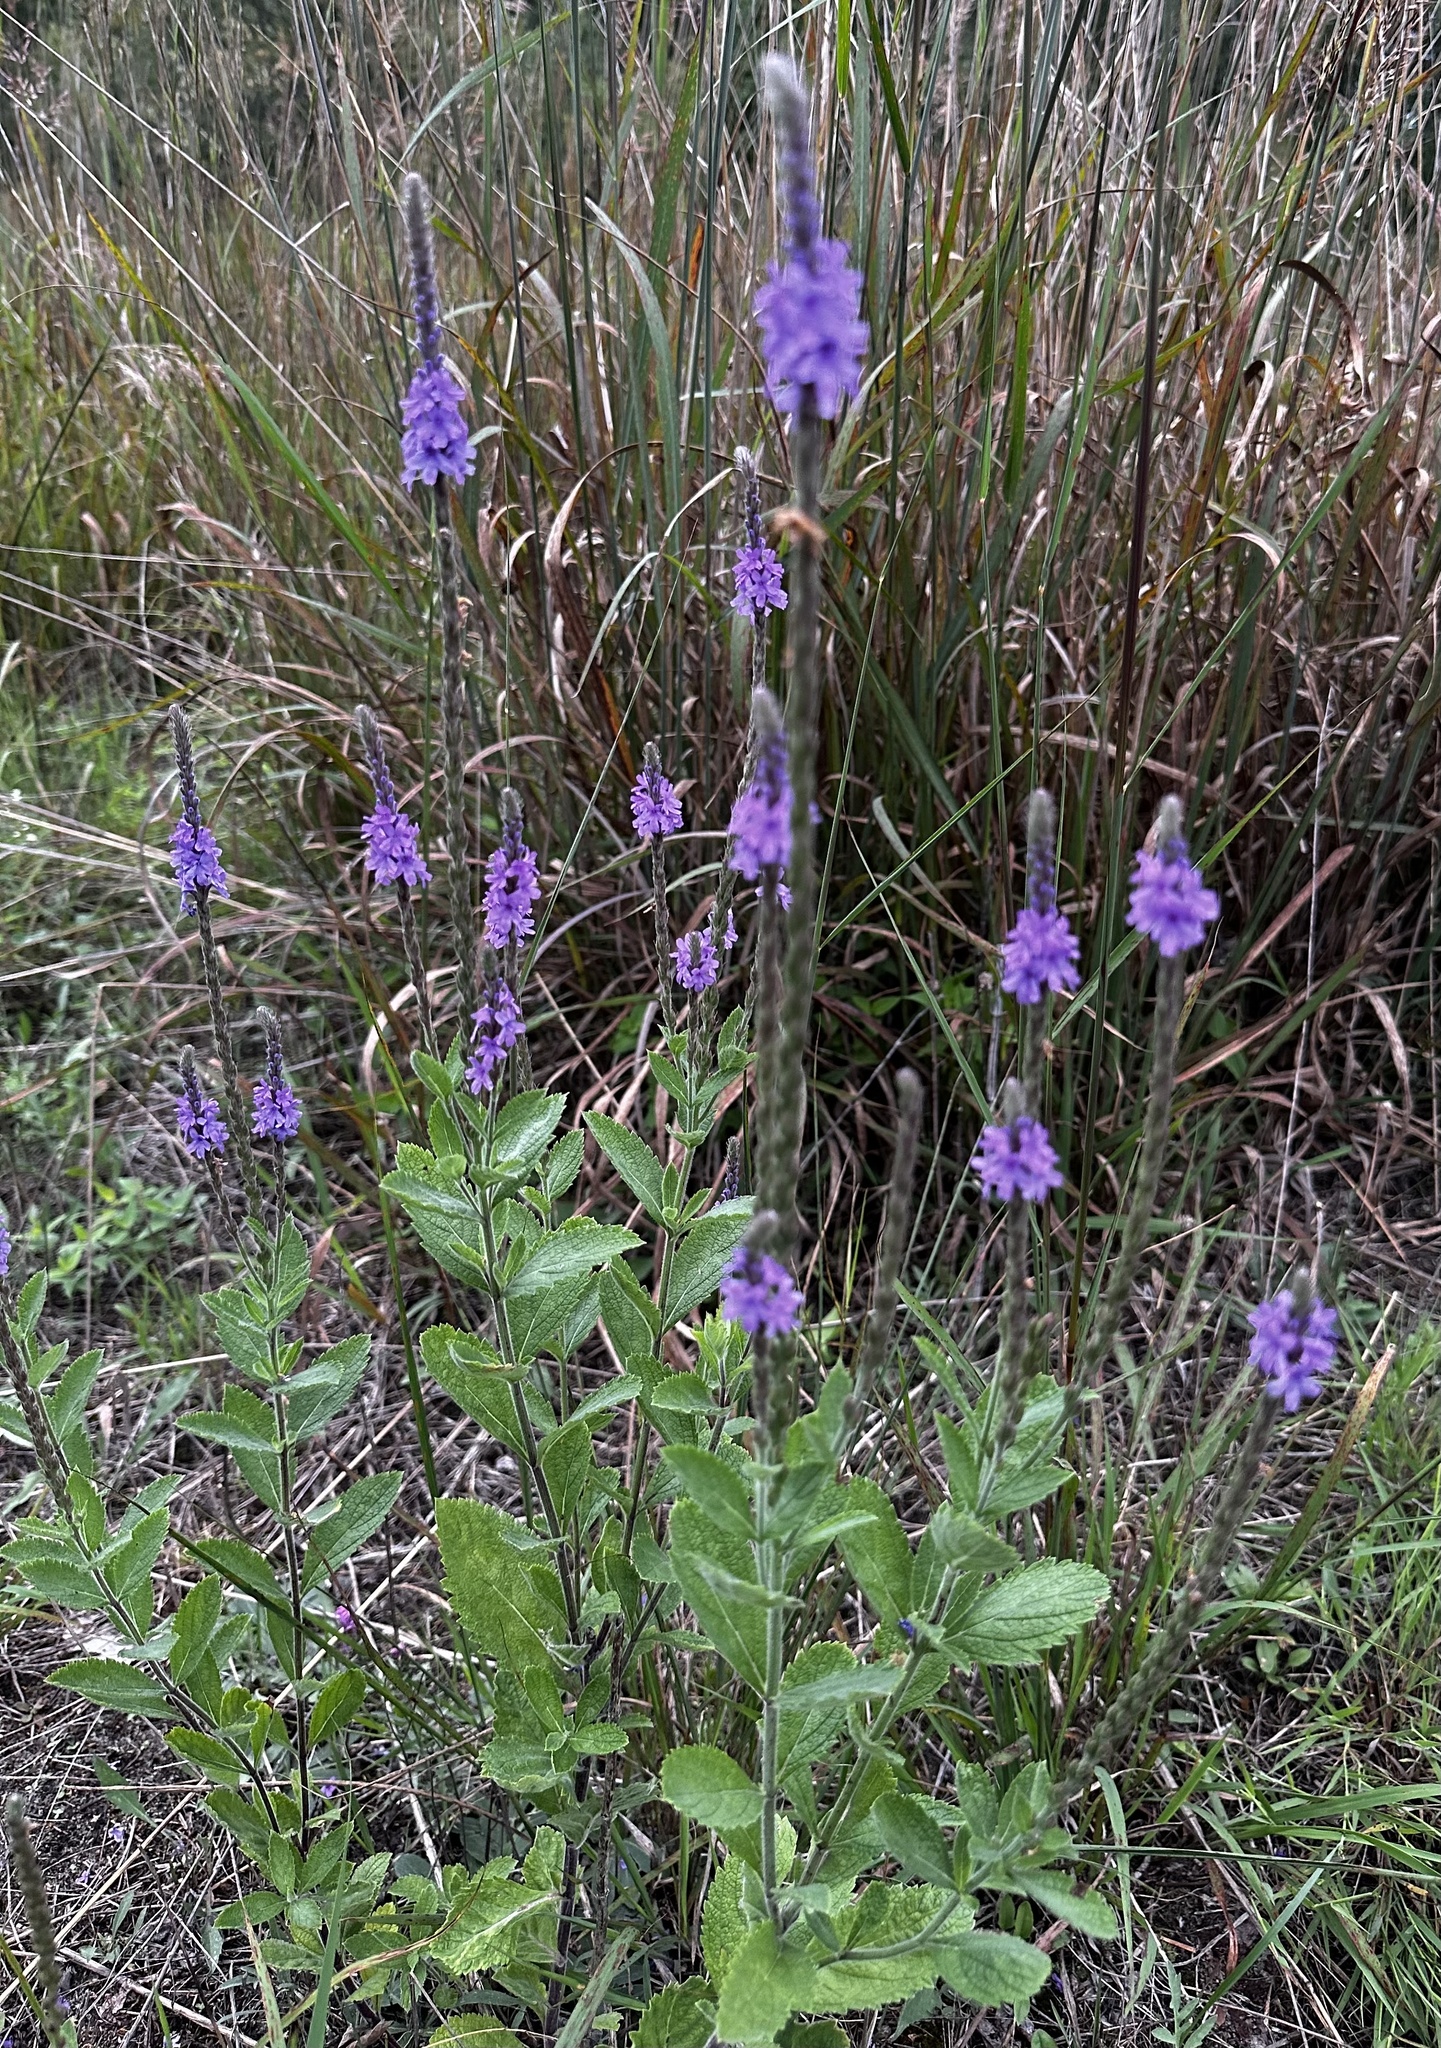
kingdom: Plantae
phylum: Tracheophyta
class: Magnoliopsida
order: Lamiales
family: Verbenaceae
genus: Verbena
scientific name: Verbena stricta
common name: Hoary vervain
